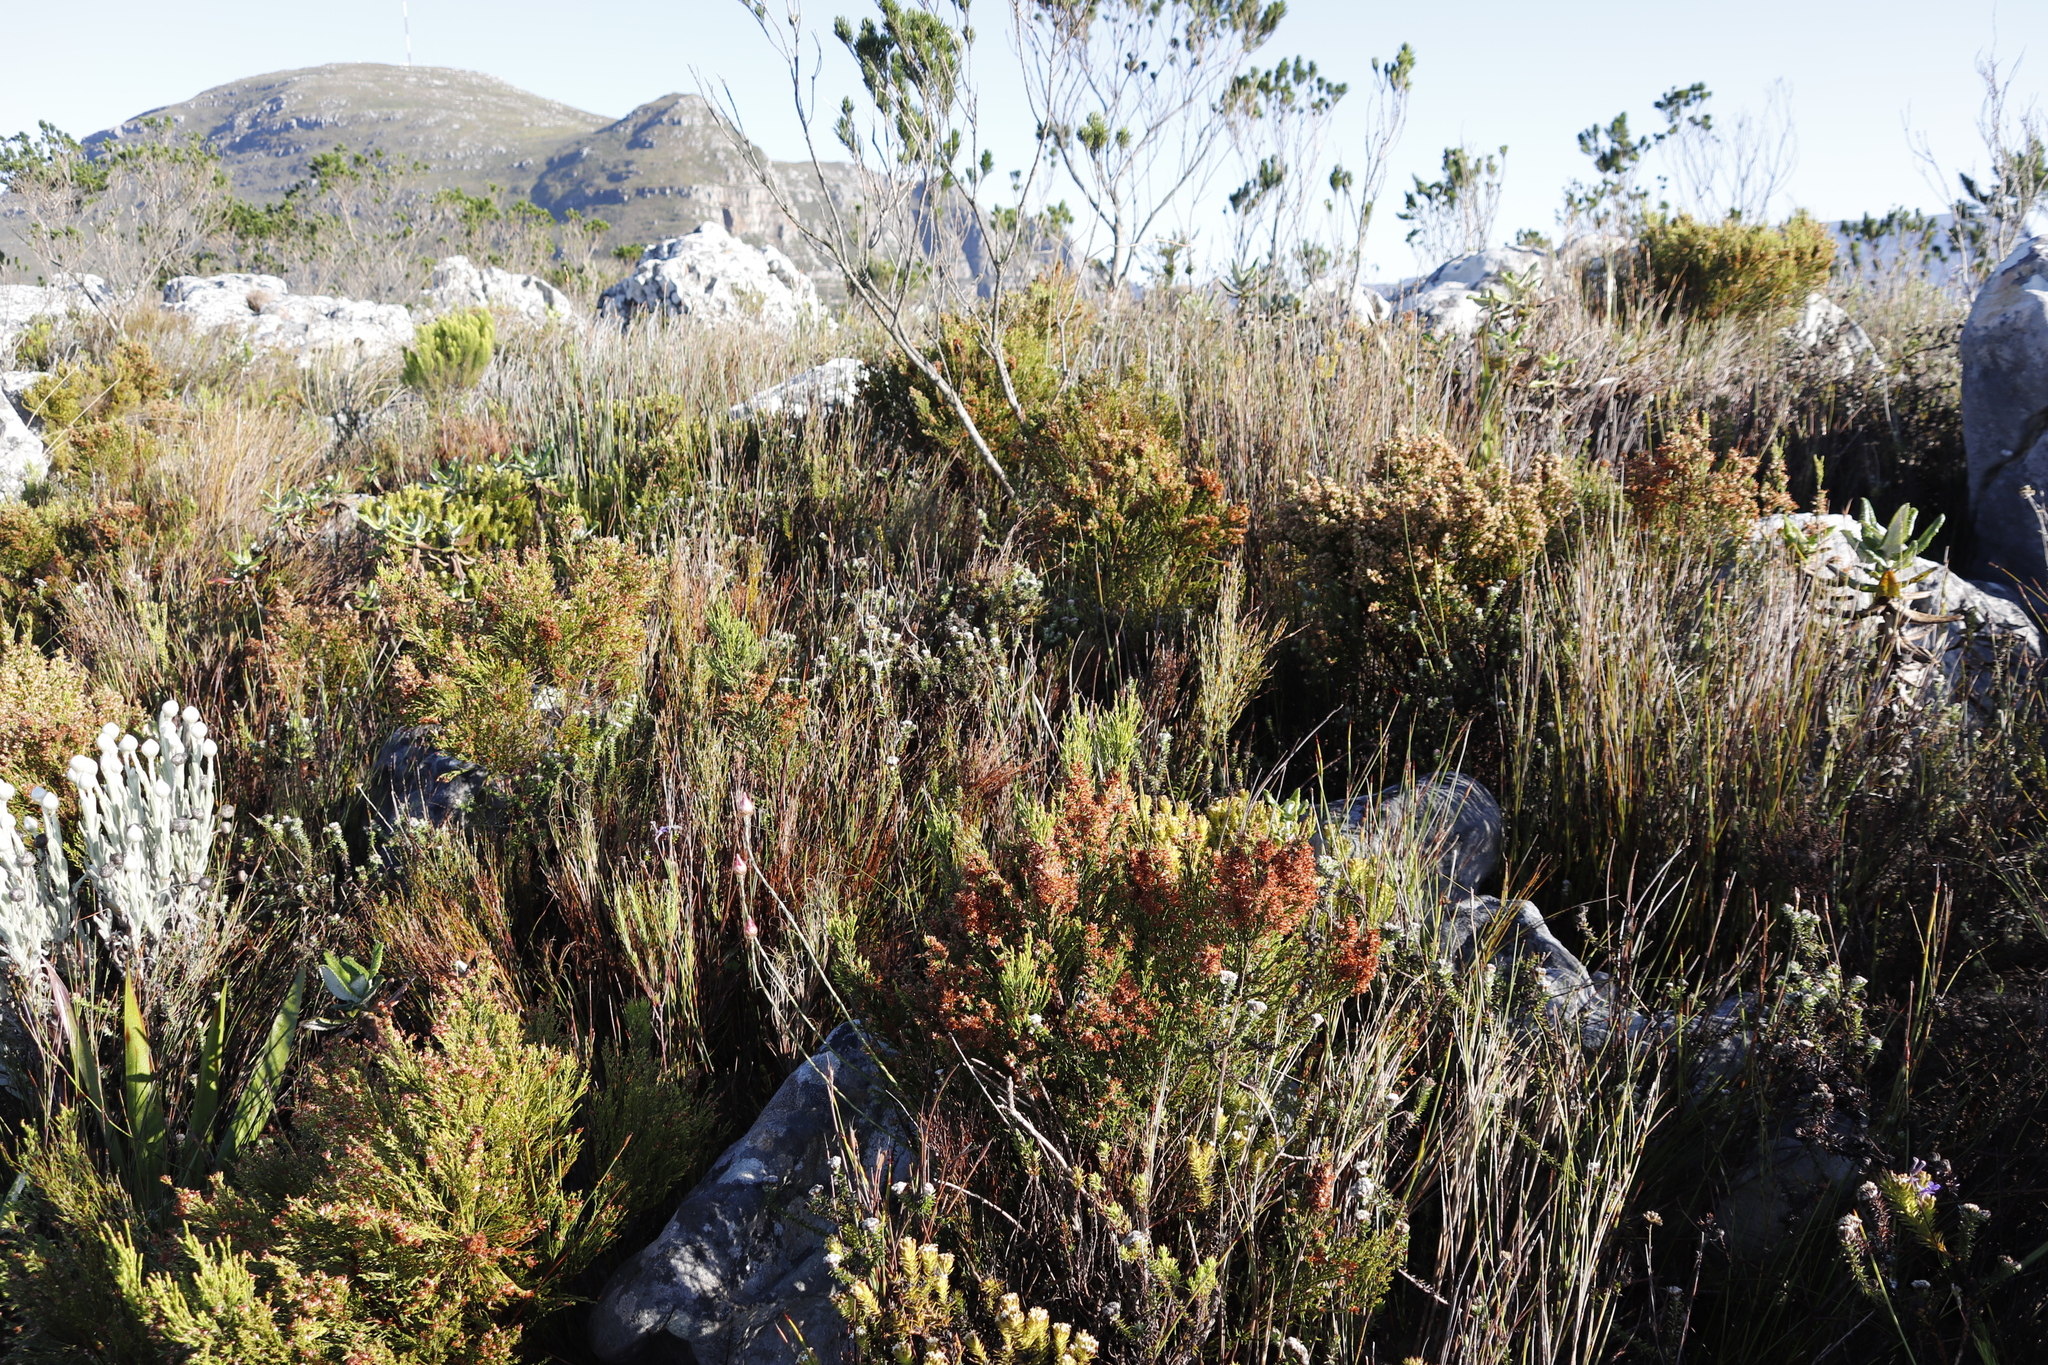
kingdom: Plantae
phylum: Tracheophyta
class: Magnoliopsida
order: Ericales
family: Ericaceae
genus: Erica
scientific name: Erica lutea
